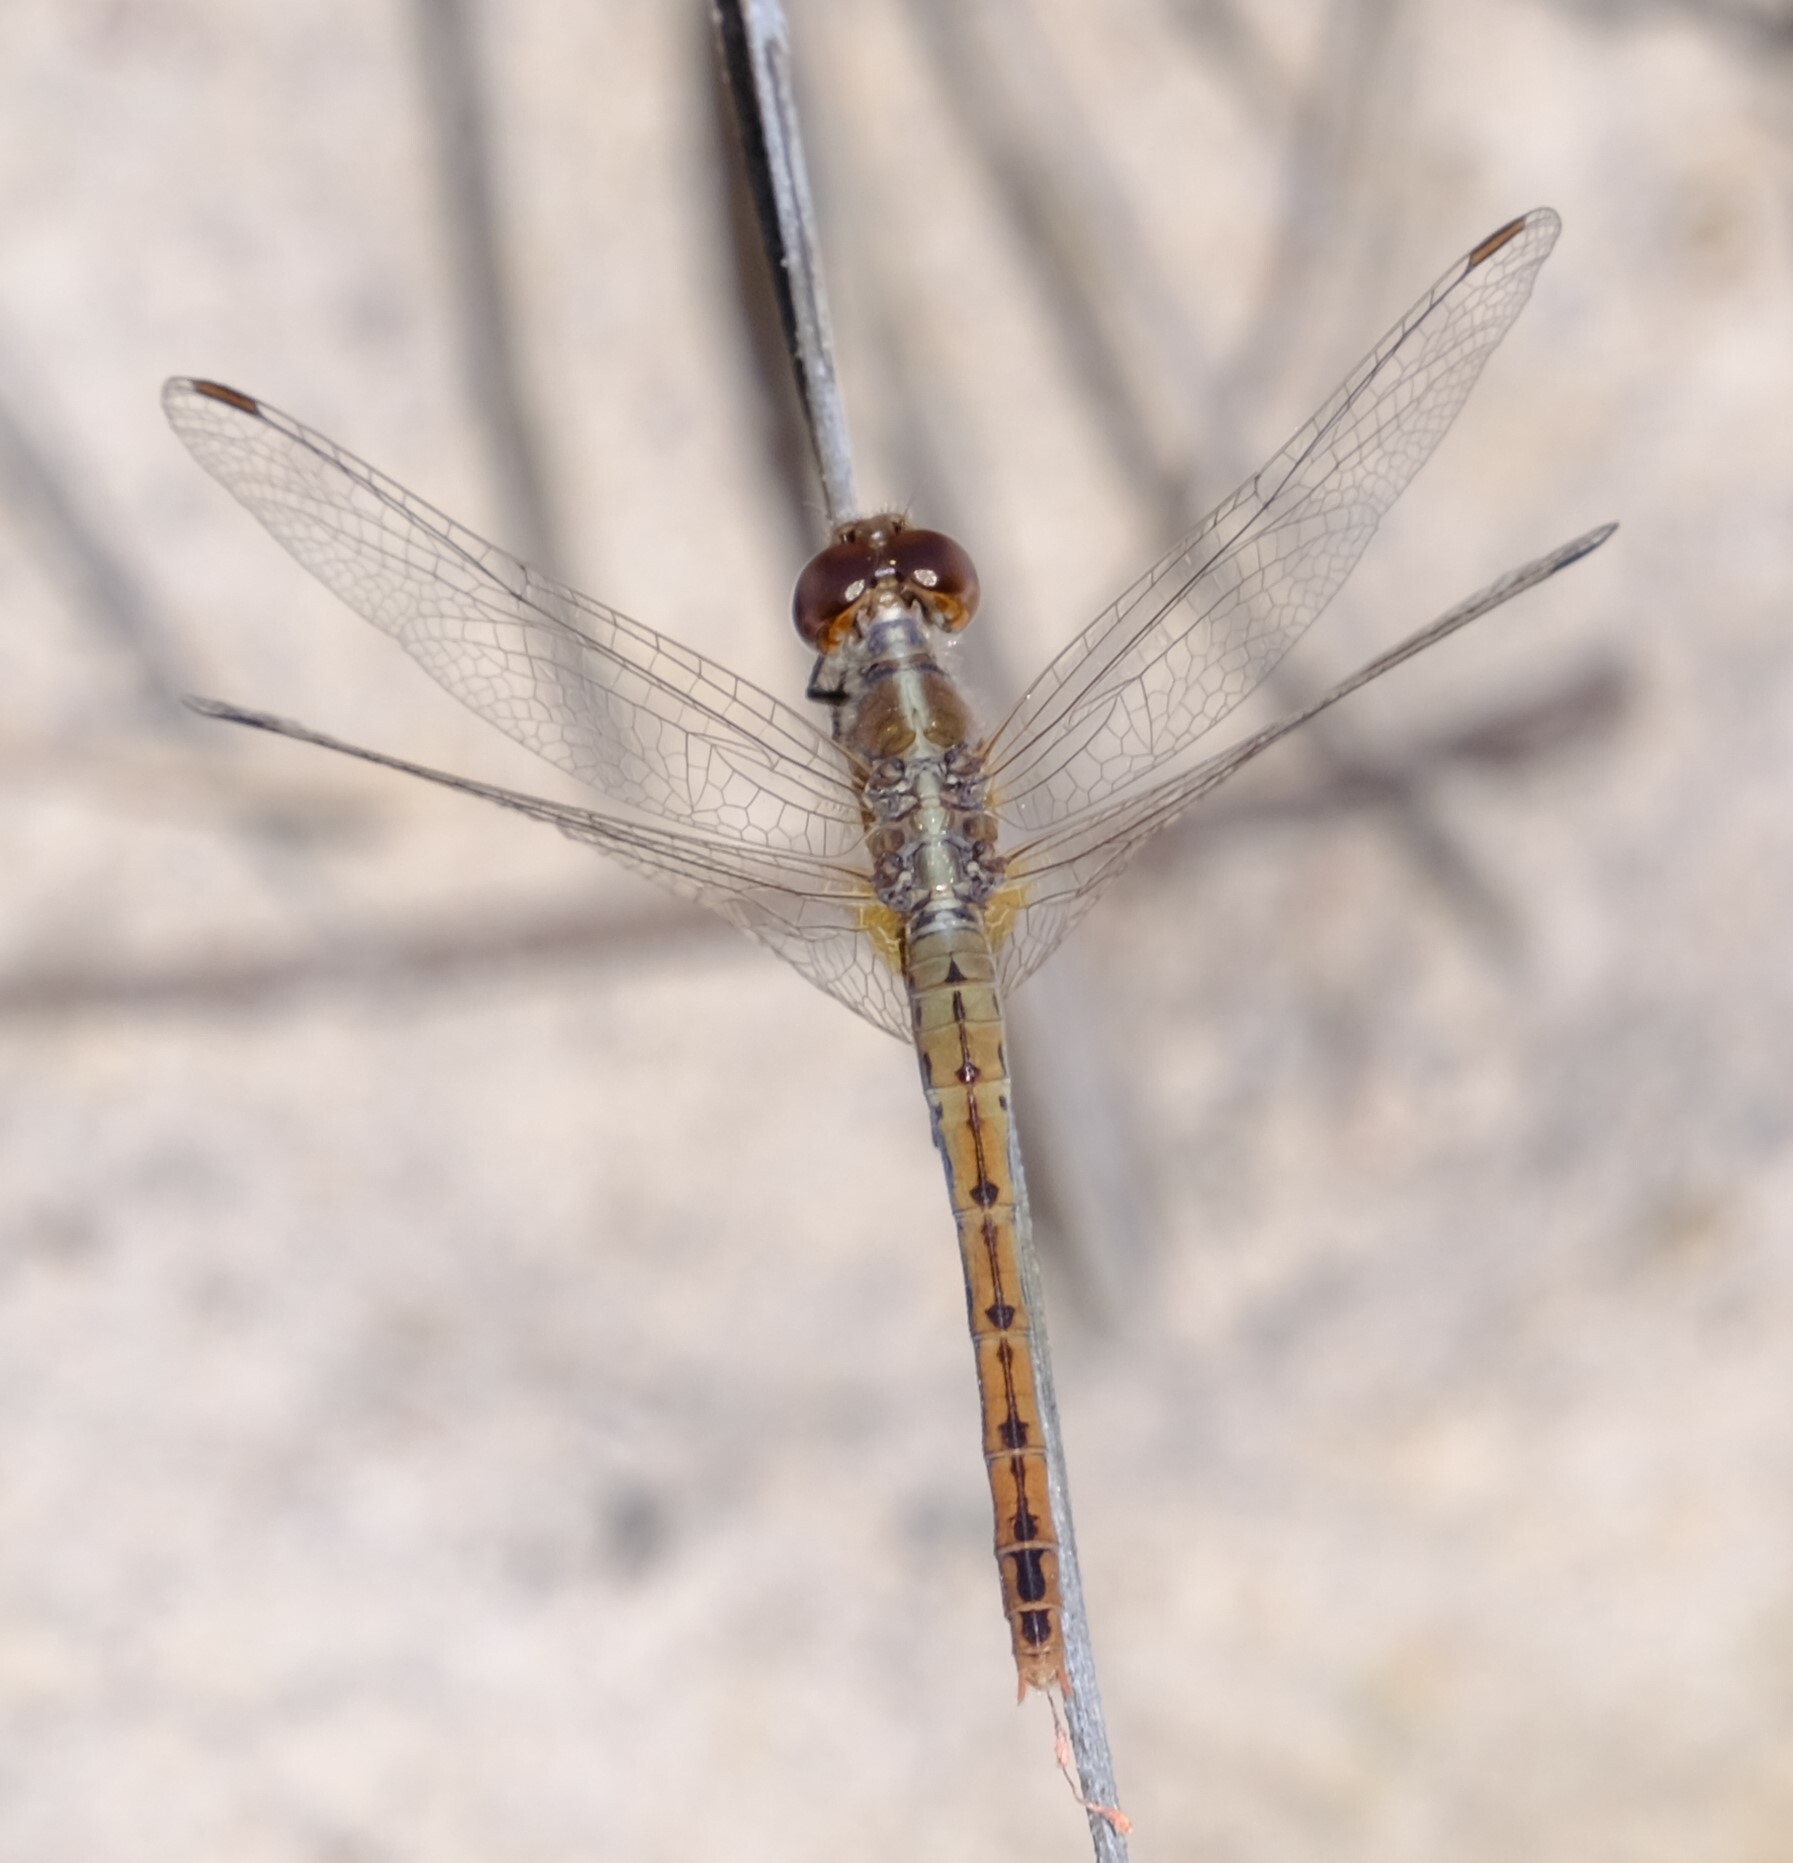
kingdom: Animalia
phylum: Arthropoda
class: Insecta
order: Odonata
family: Libellulidae
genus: Diplacodes
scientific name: Diplacodes bipunctata
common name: Red percher dragonfly
